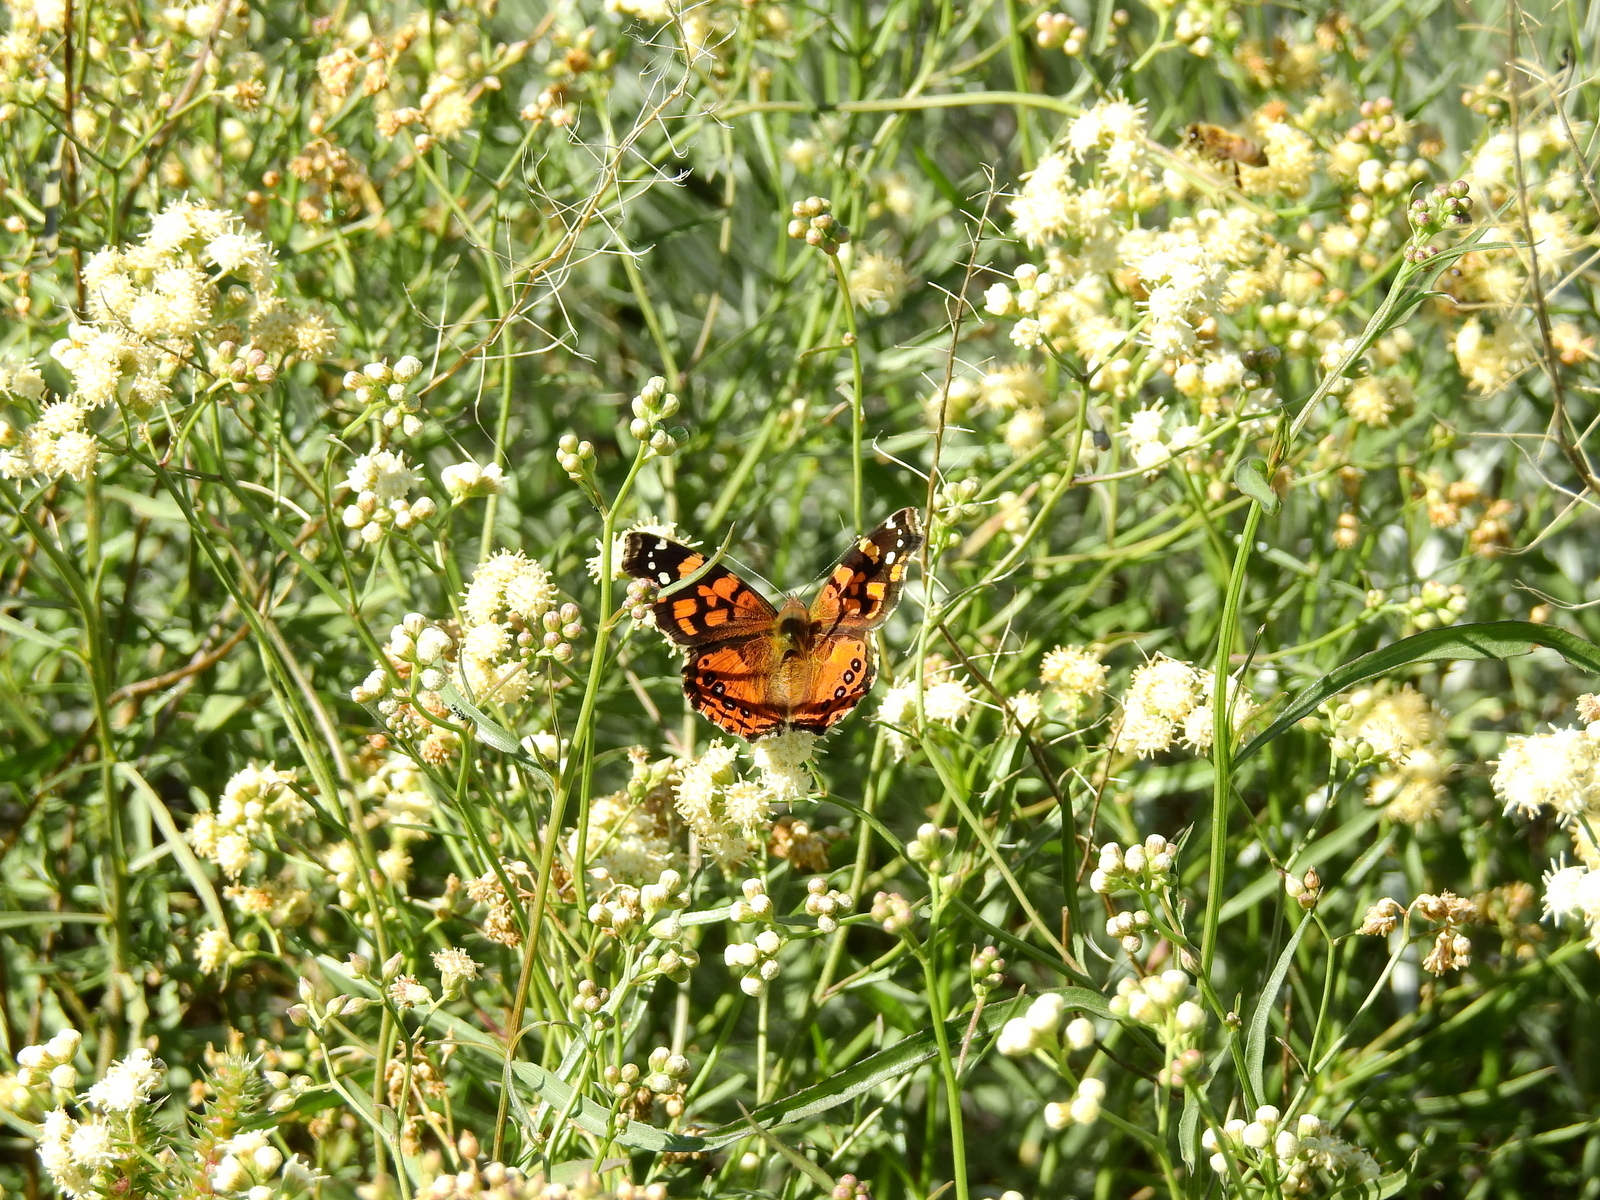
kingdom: Animalia
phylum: Arthropoda
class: Insecta
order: Lepidoptera
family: Nymphalidae
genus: Vanessa
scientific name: Vanessa carye
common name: Subtropical lady
